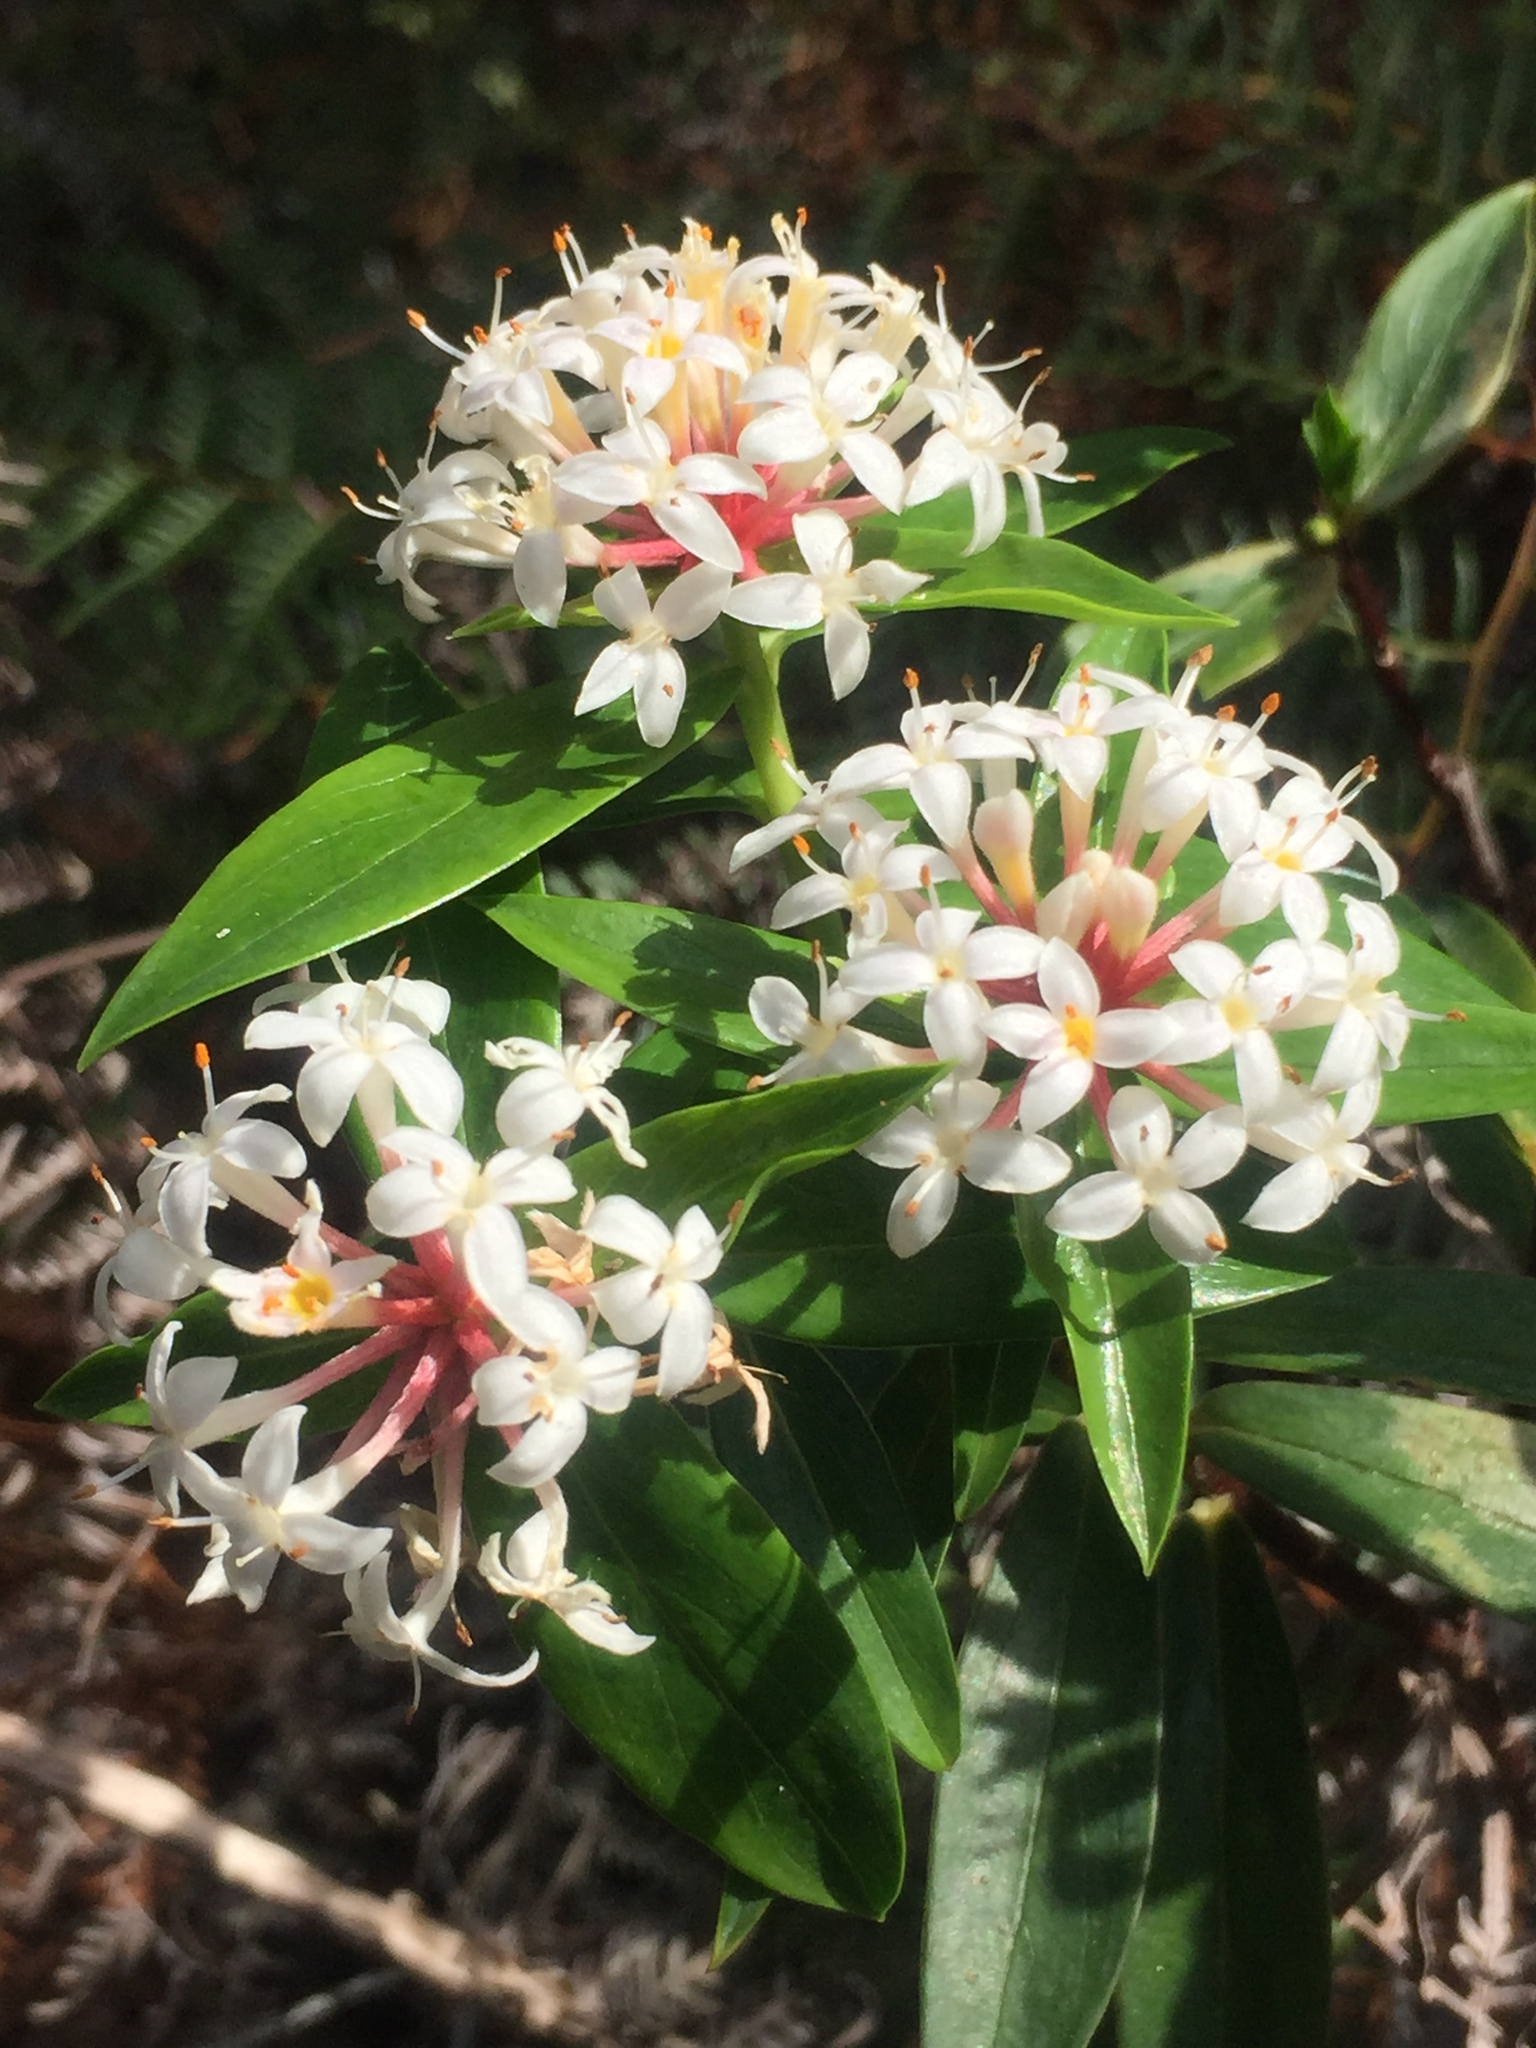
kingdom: Plantae
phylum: Tracheophyta
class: Magnoliopsida
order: Malvales
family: Thymelaeaceae
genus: Pimelea
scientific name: Pimelea longifolia
